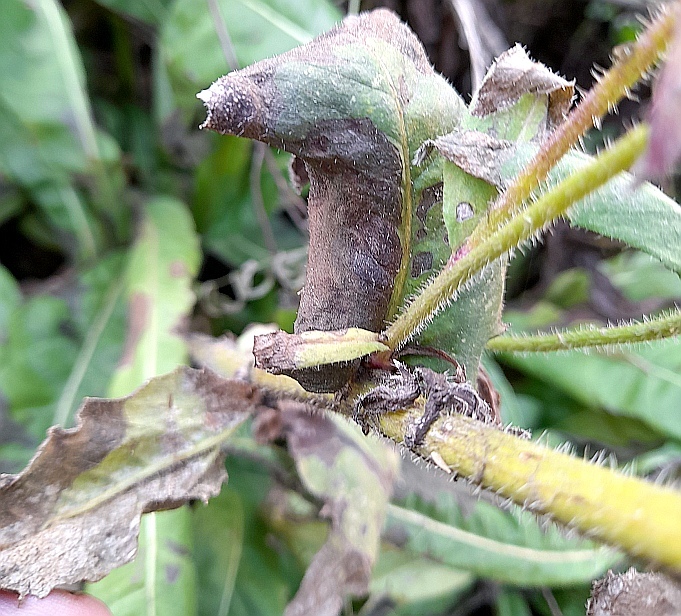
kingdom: Plantae
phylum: Tracheophyta
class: Magnoliopsida
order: Asterales
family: Asteraceae
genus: Picris
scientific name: Picris hieracioides
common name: Hawkweed oxtongue
